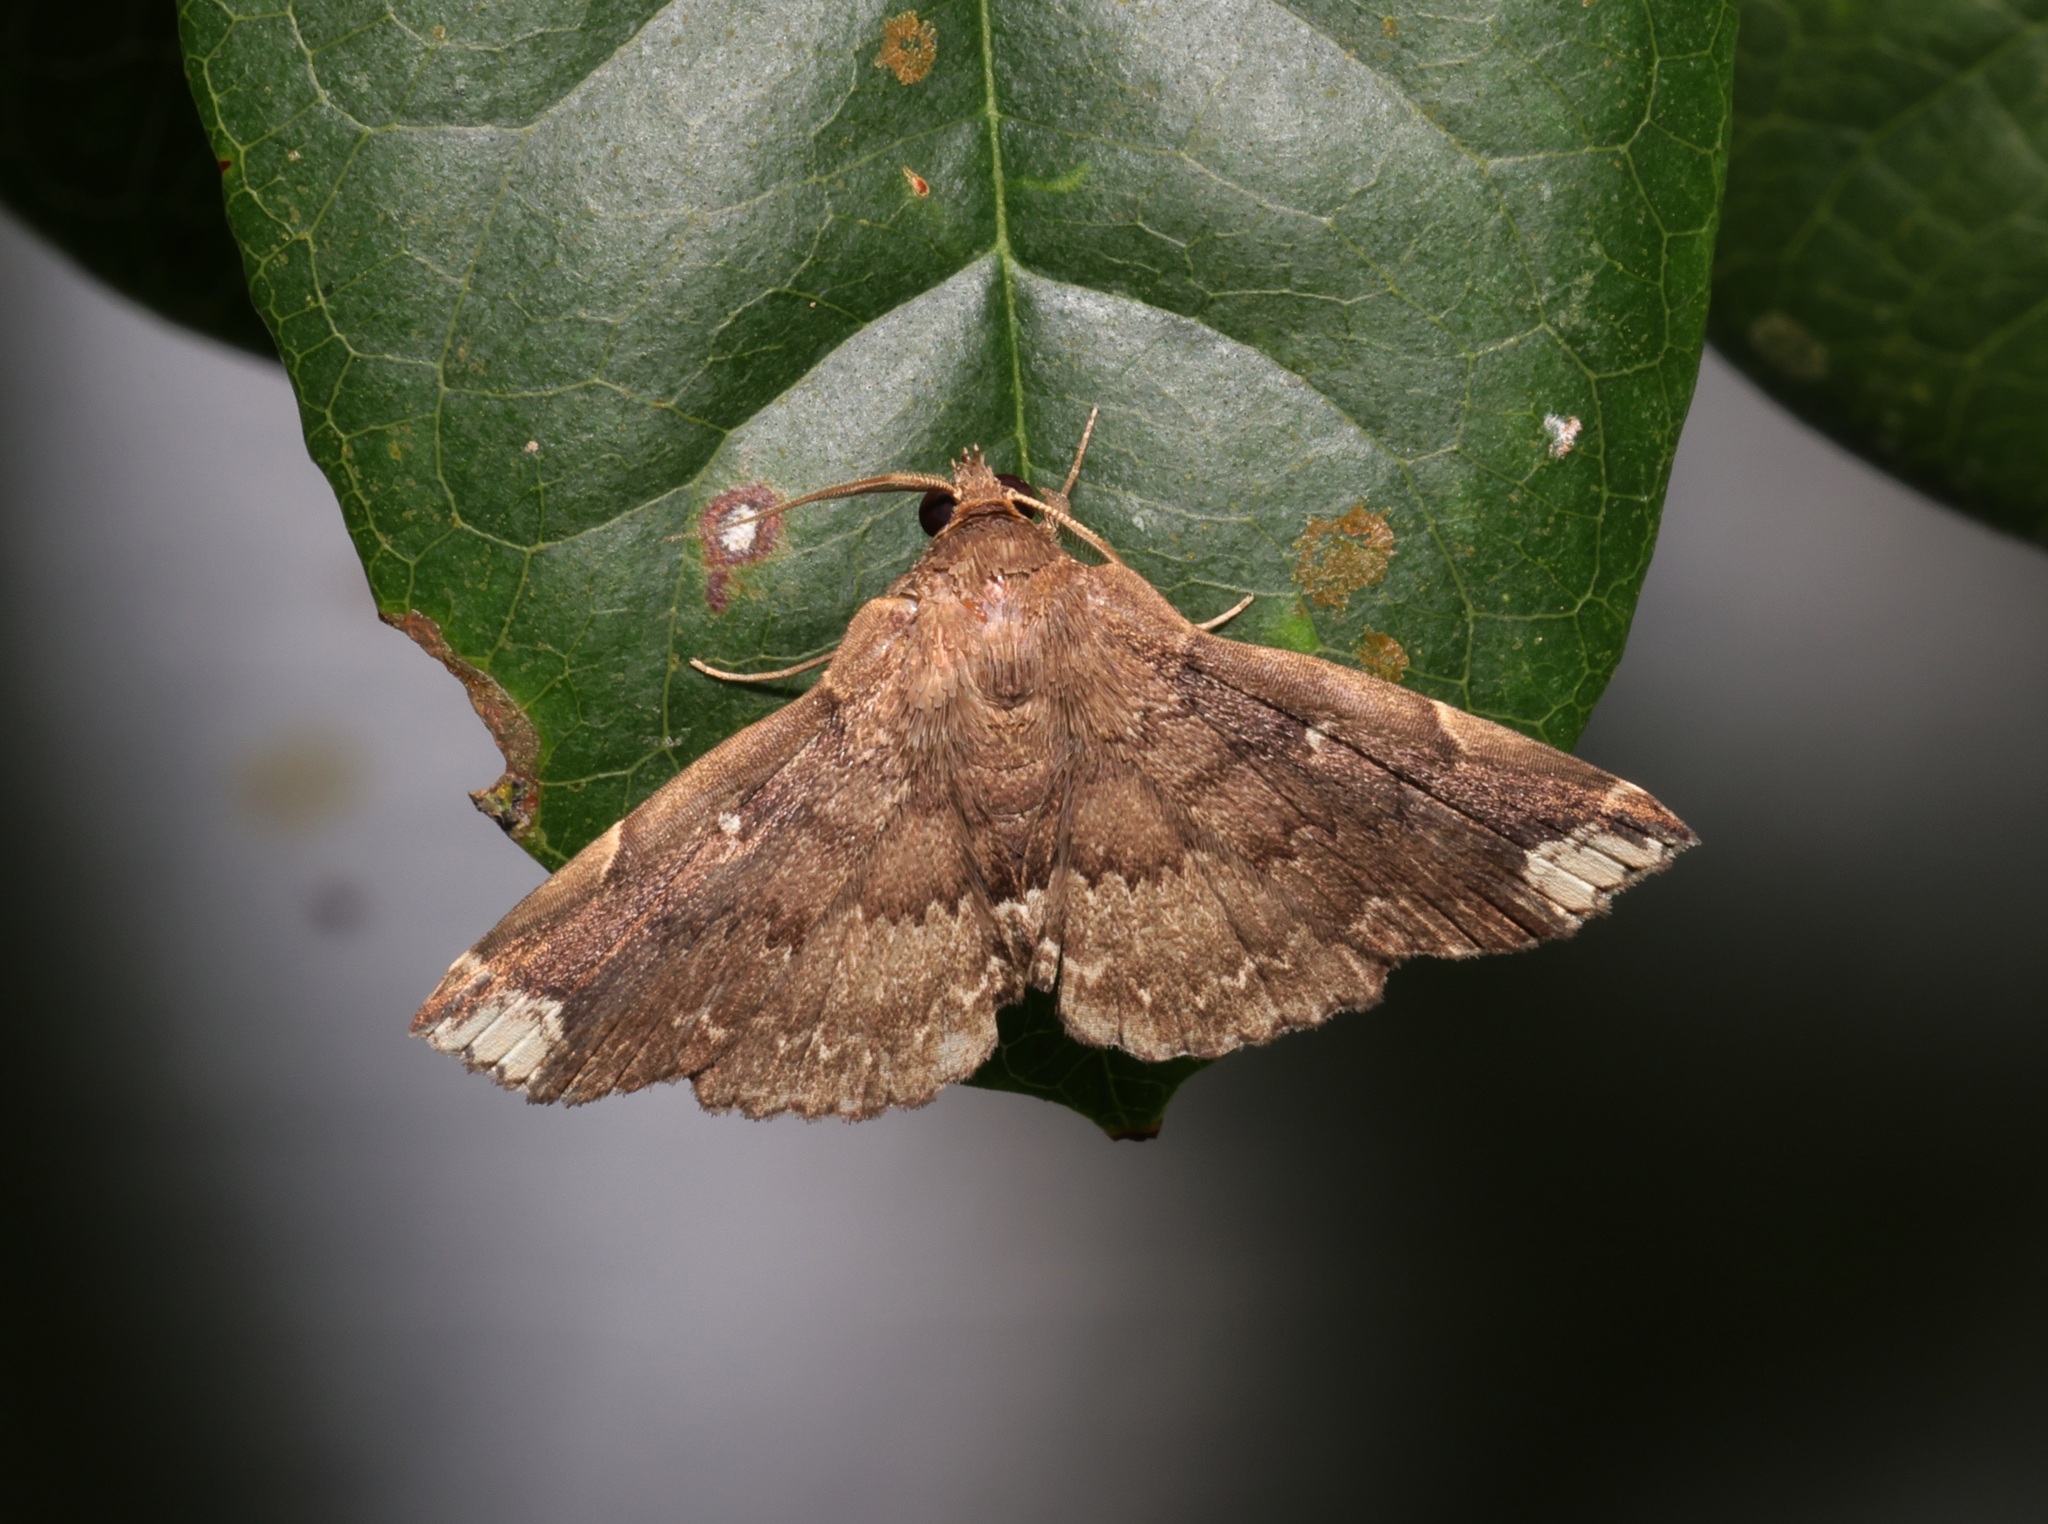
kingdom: Animalia
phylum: Arthropoda
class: Insecta
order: Lepidoptera
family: Erebidae
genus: Adrapsa
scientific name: Adrapsa quadrilinealis
